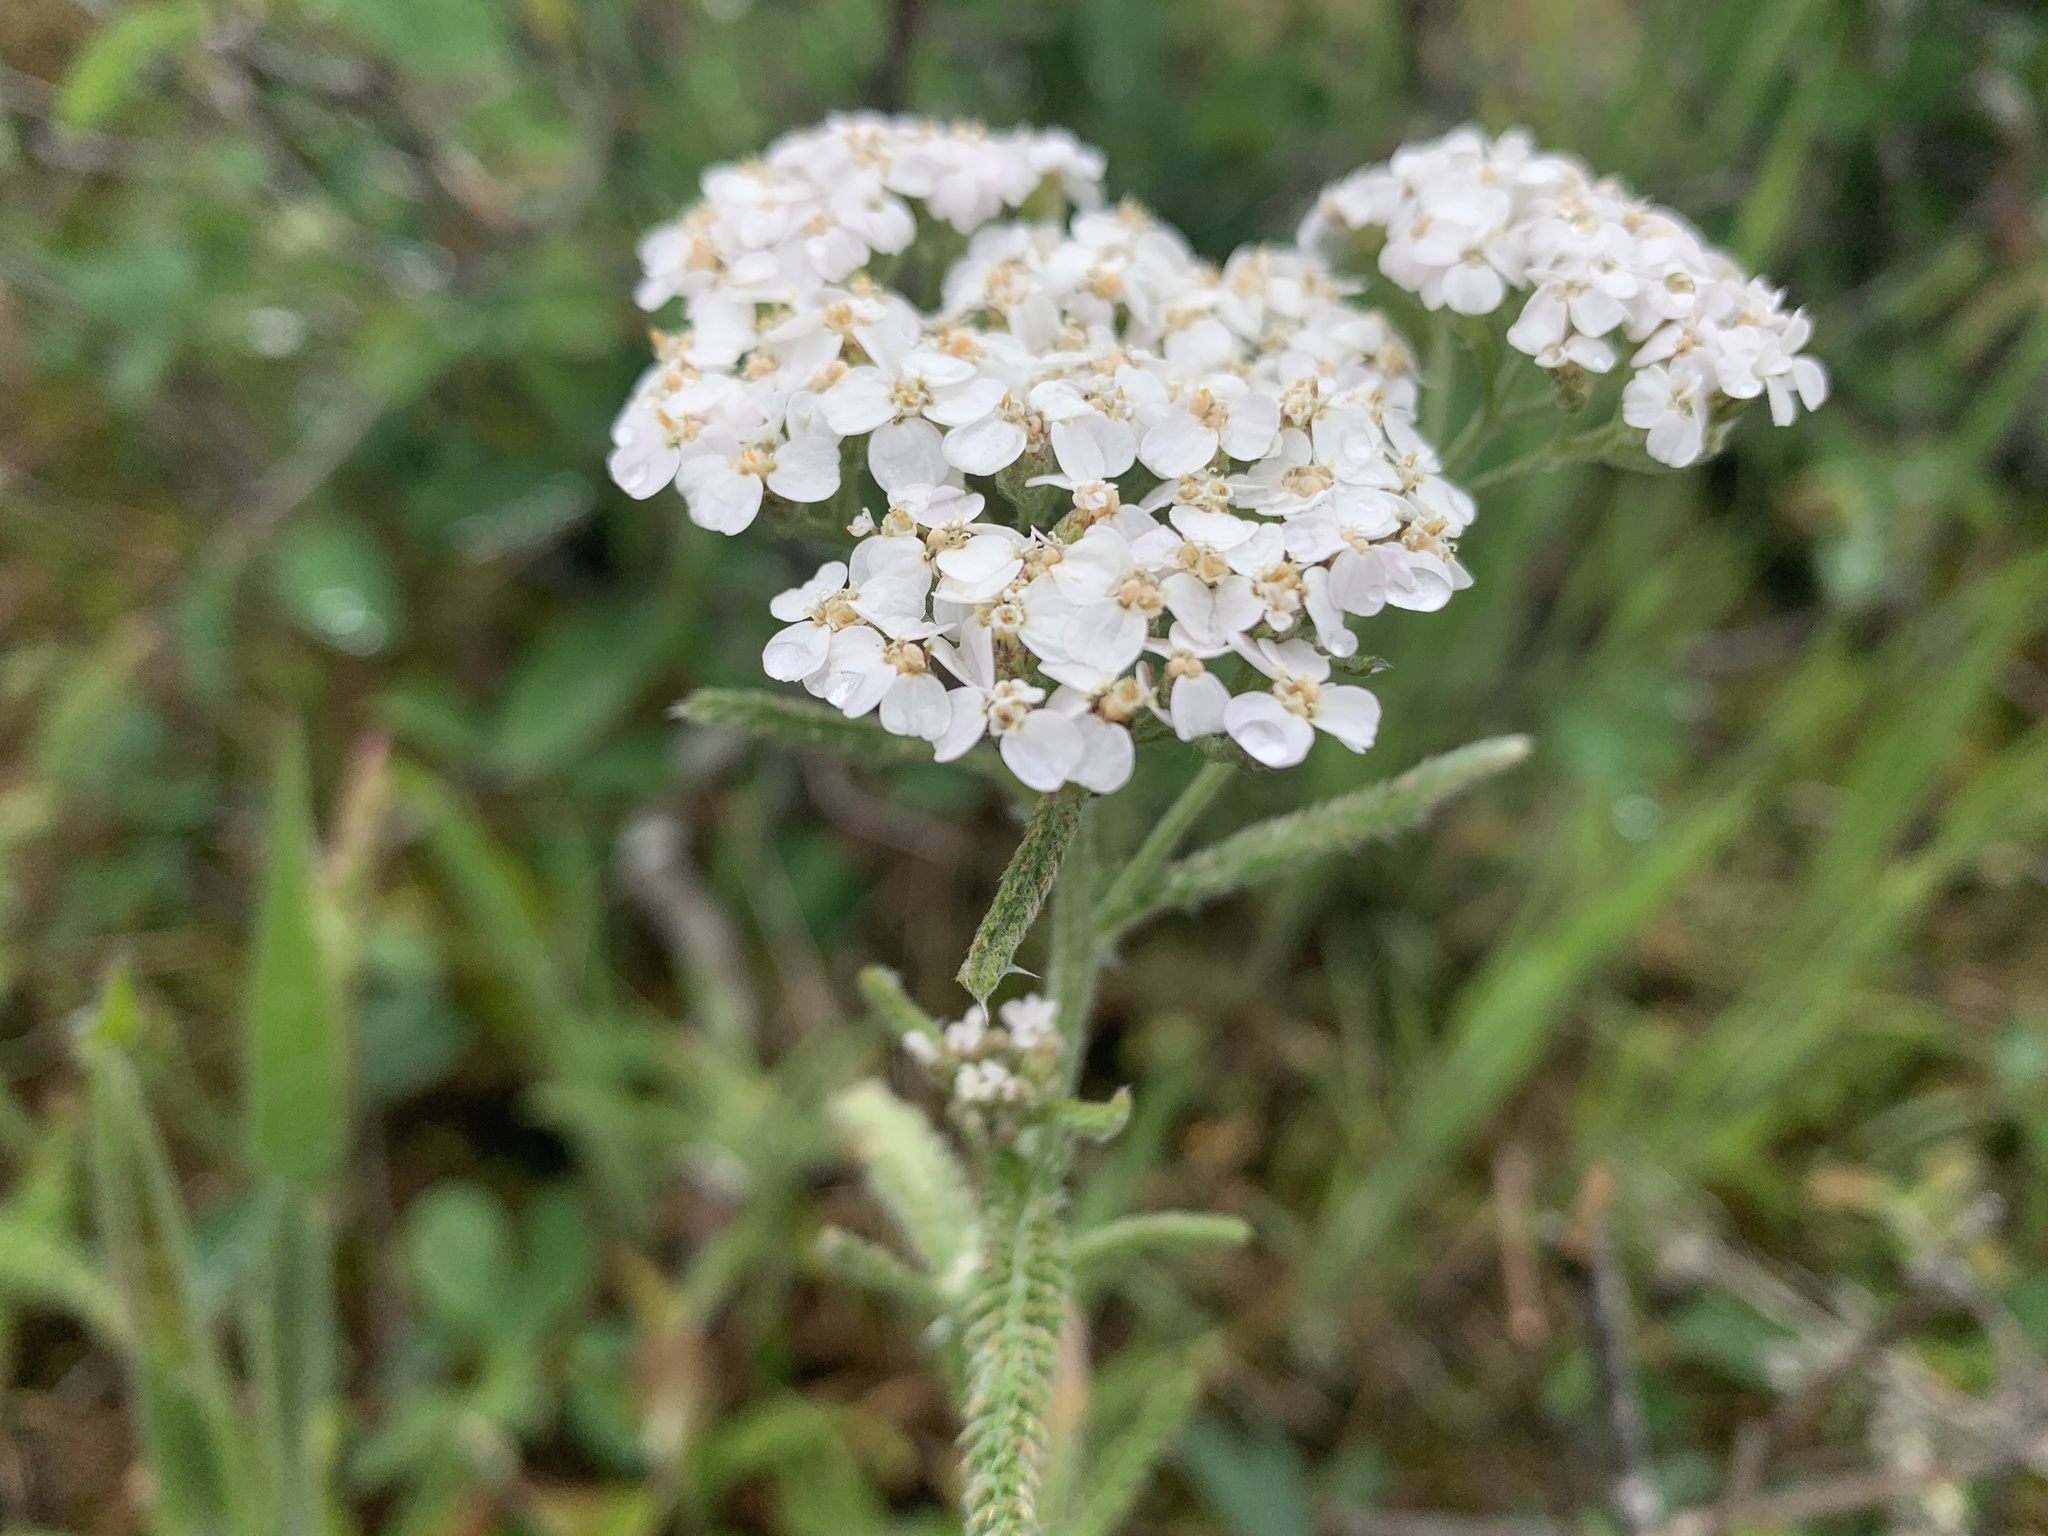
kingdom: Plantae
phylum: Tracheophyta
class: Magnoliopsida
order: Asterales
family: Asteraceae
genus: Achillea
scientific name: Achillea millefolium
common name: Yarrow
